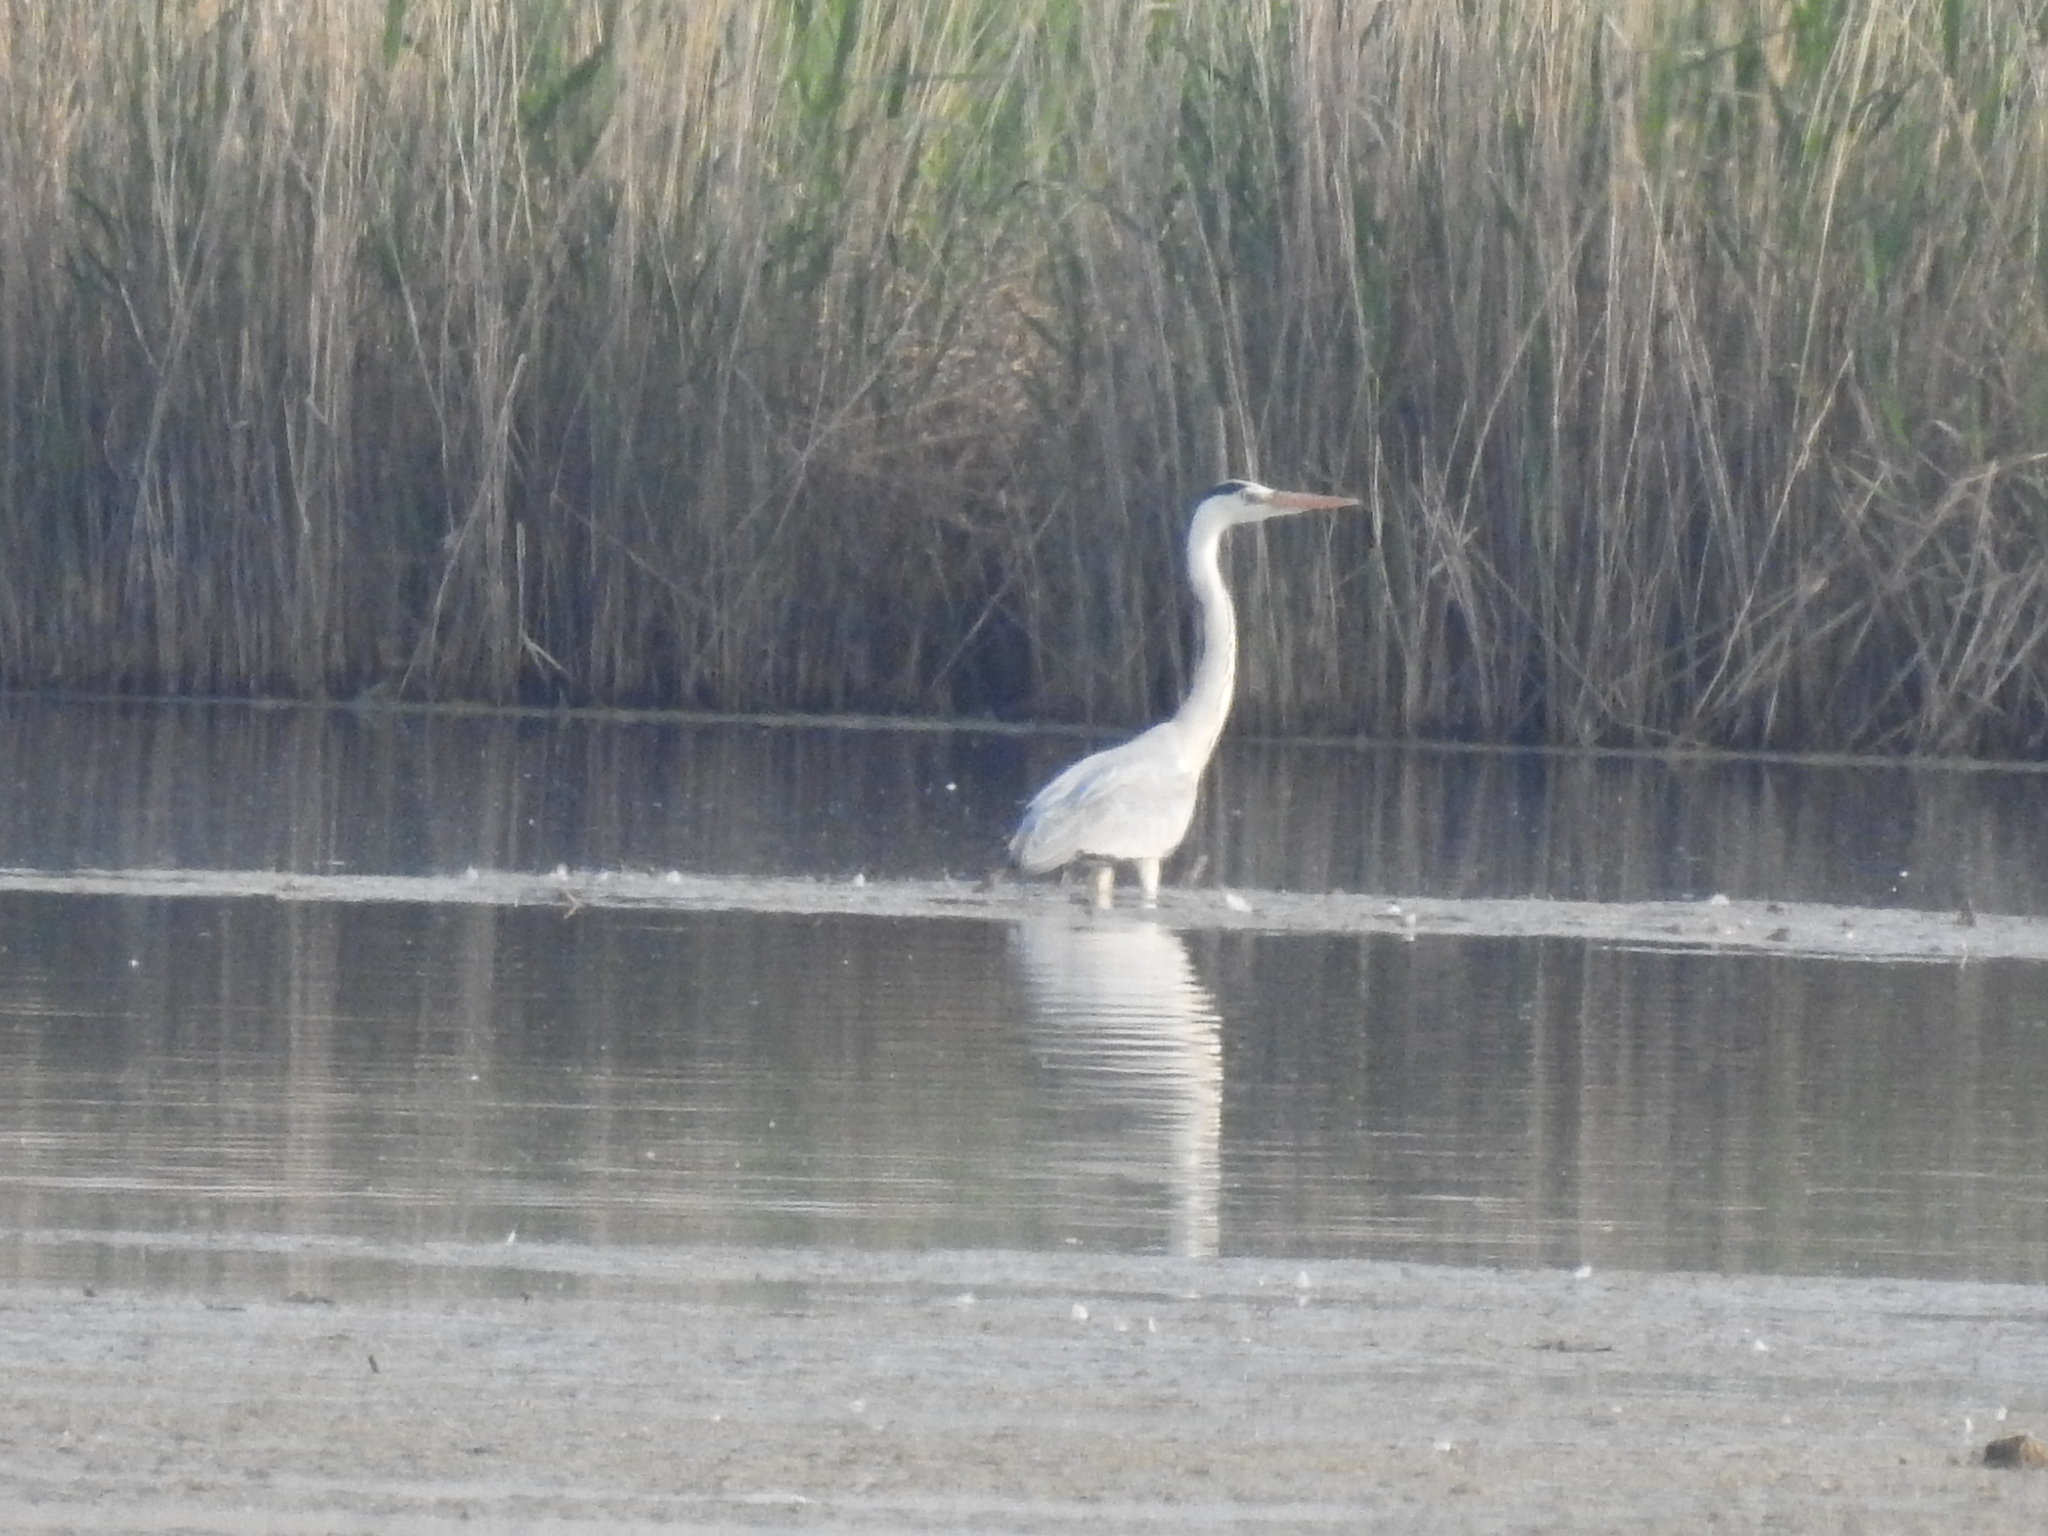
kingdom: Animalia
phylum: Chordata
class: Aves
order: Pelecaniformes
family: Ardeidae
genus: Ardea
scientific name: Ardea cinerea
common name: Grey heron
